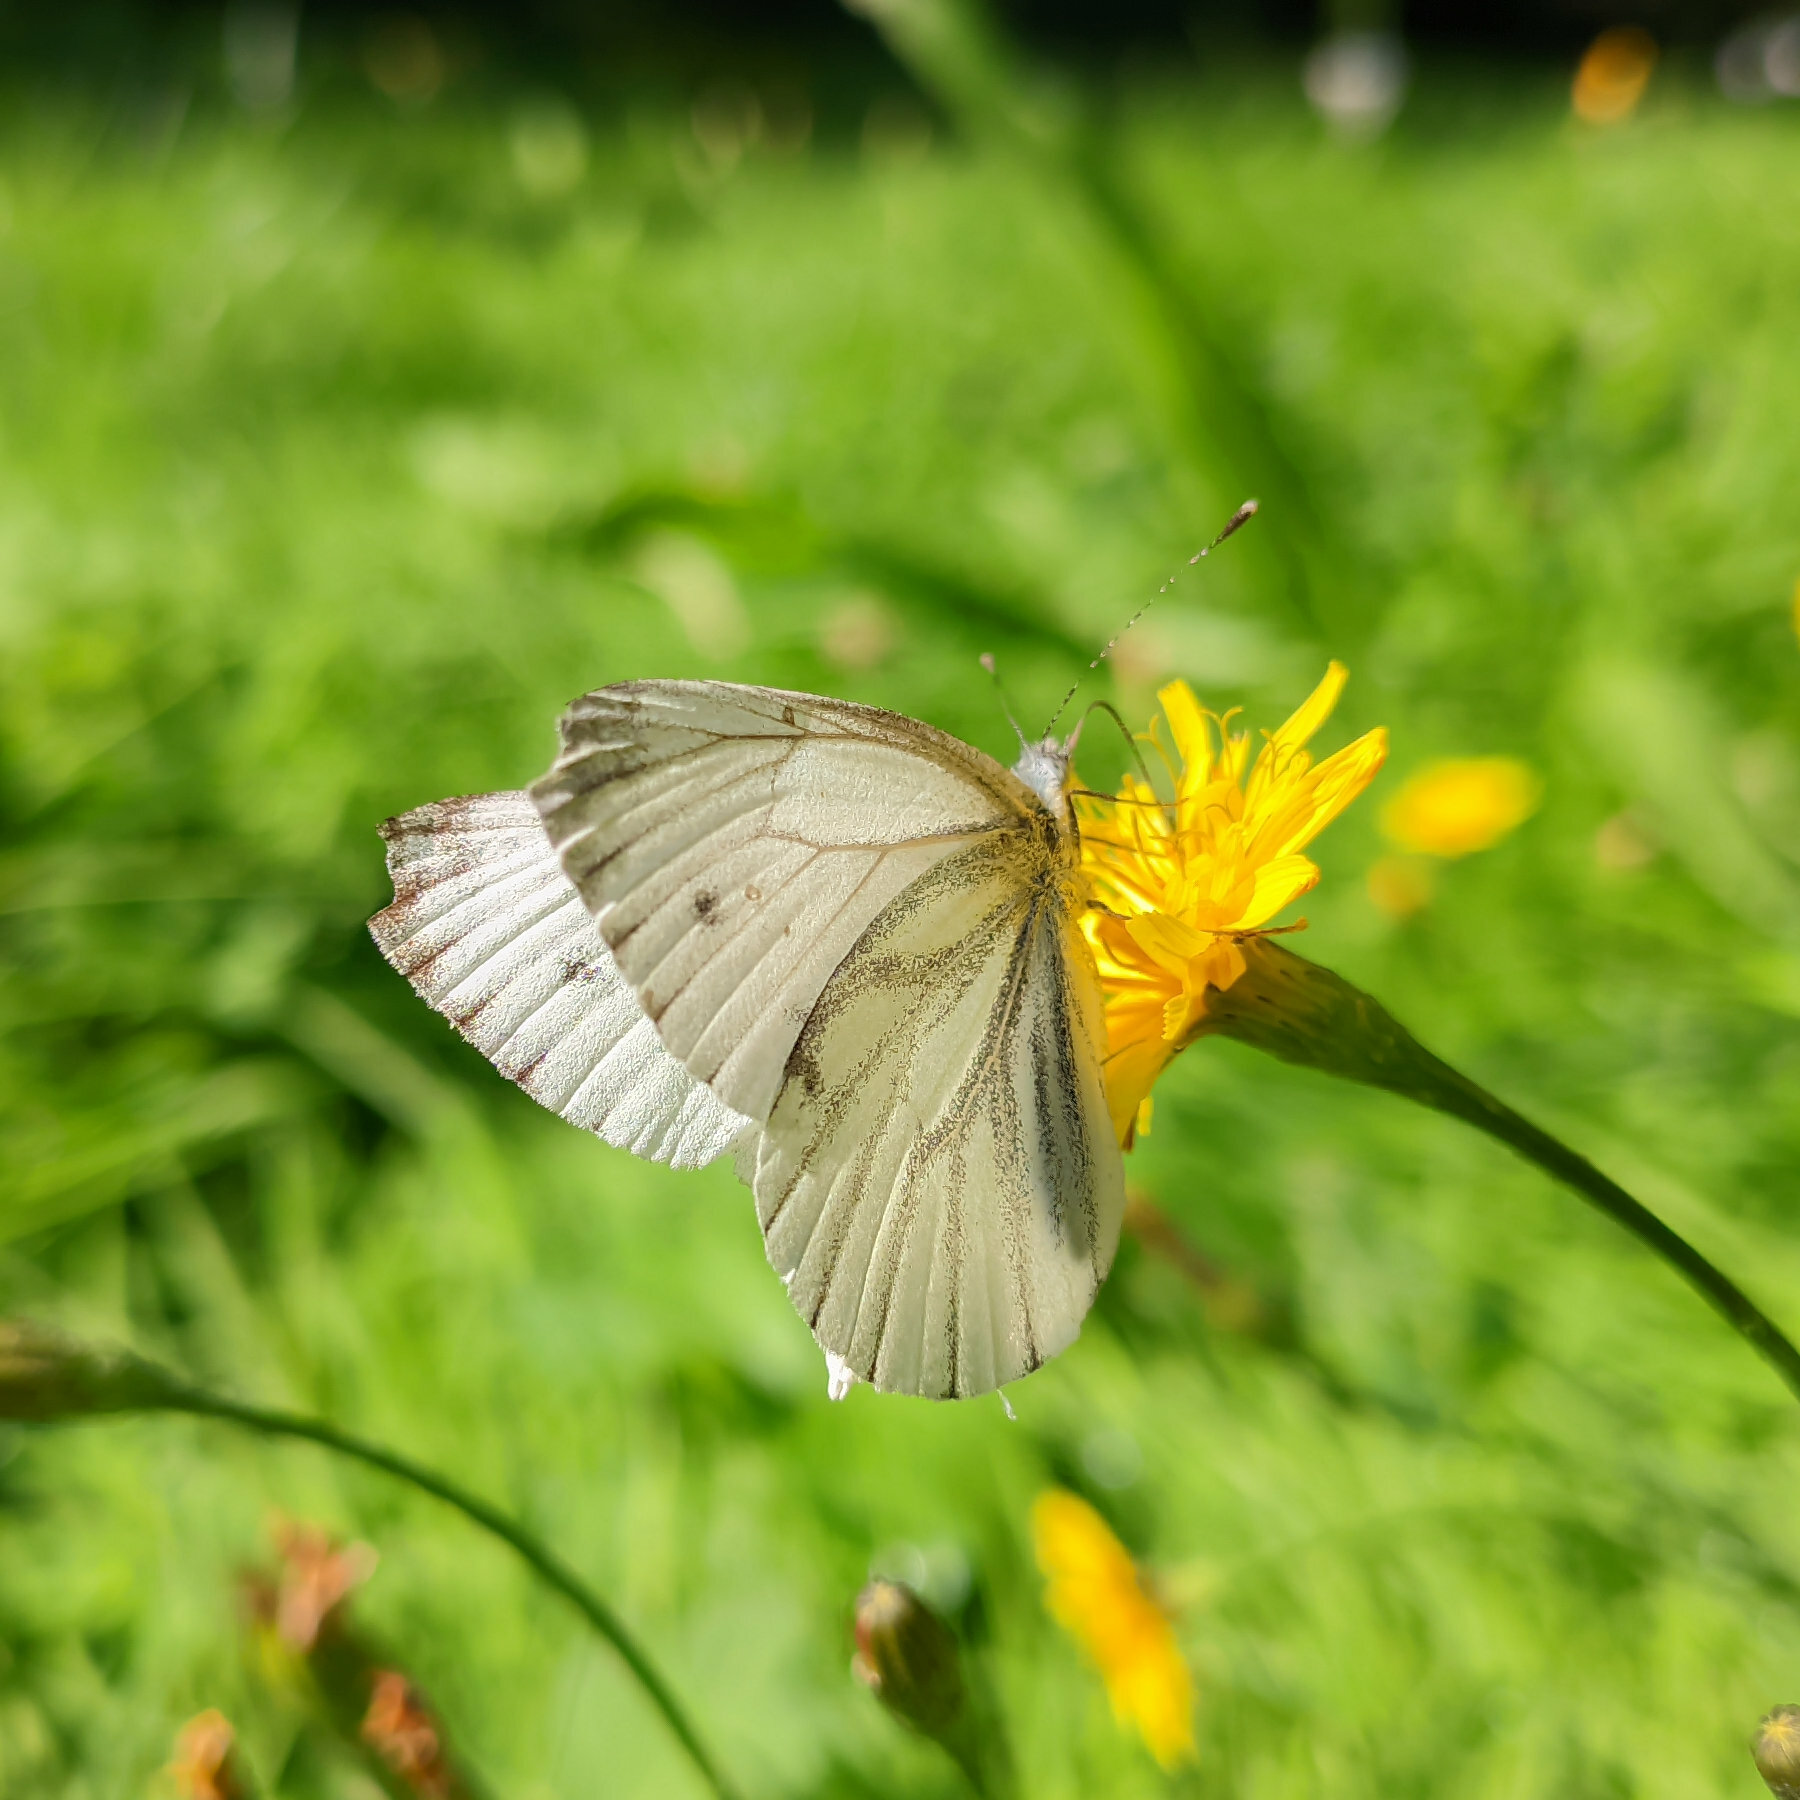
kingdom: Animalia
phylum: Arthropoda
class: Insecta
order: Lepidoptera
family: Pieridae
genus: Pieris
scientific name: Pieris napi
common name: Green-veined white
